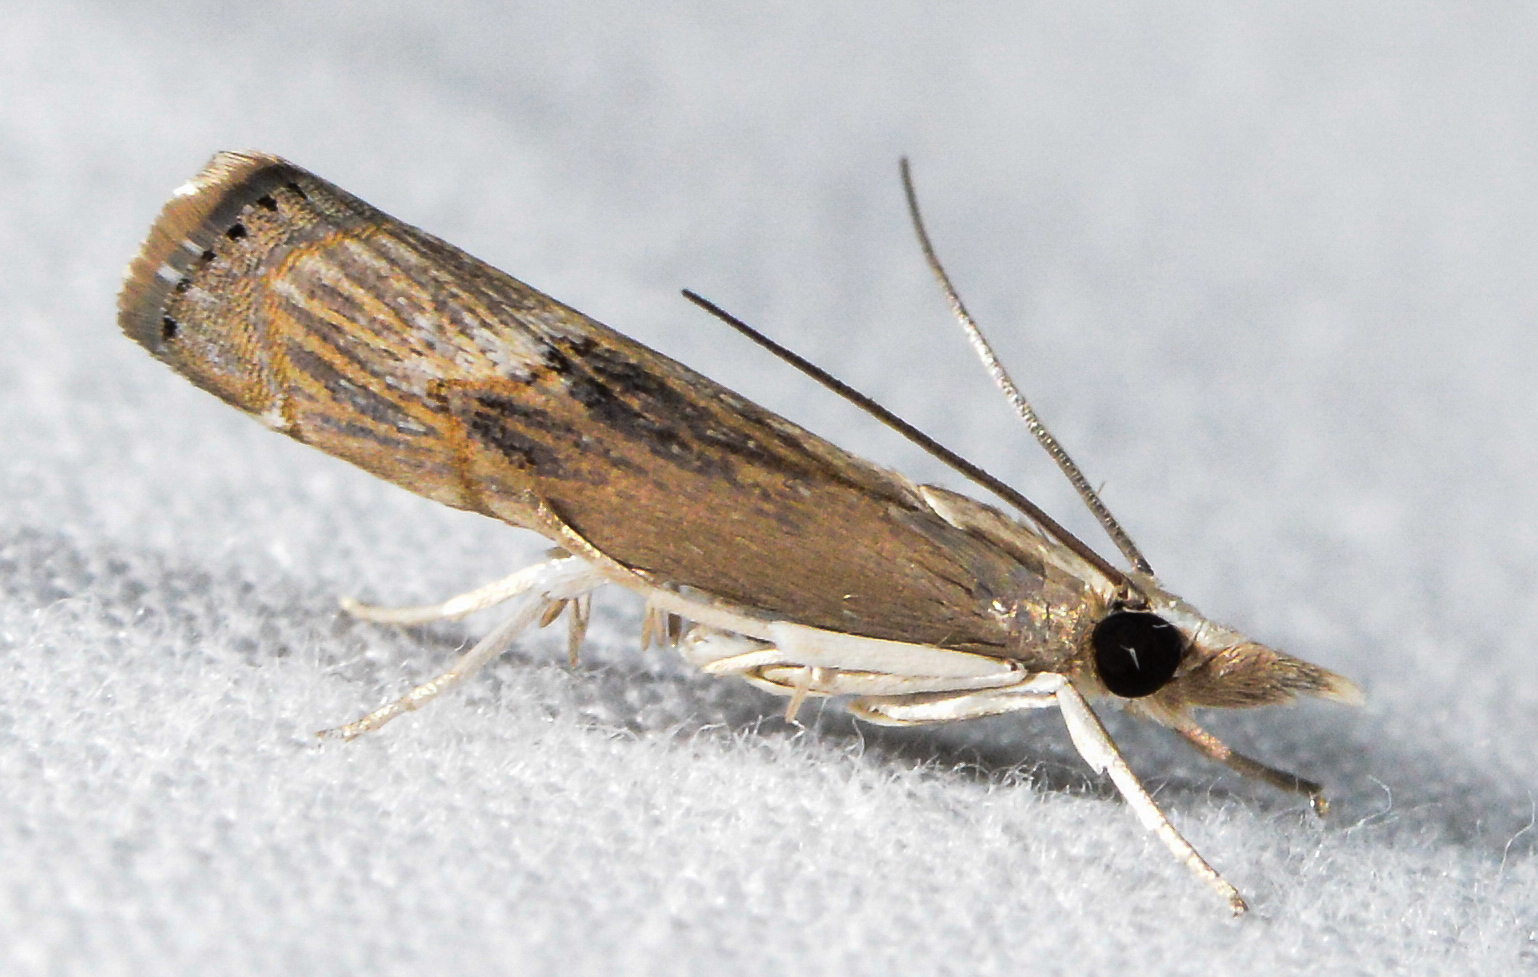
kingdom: Animalia
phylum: Arthropoda
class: Insecta
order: Lepidoptera
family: Crambidae
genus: Parapediasia
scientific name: Parapediasia teterellus
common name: Bluegrass webworm moth
